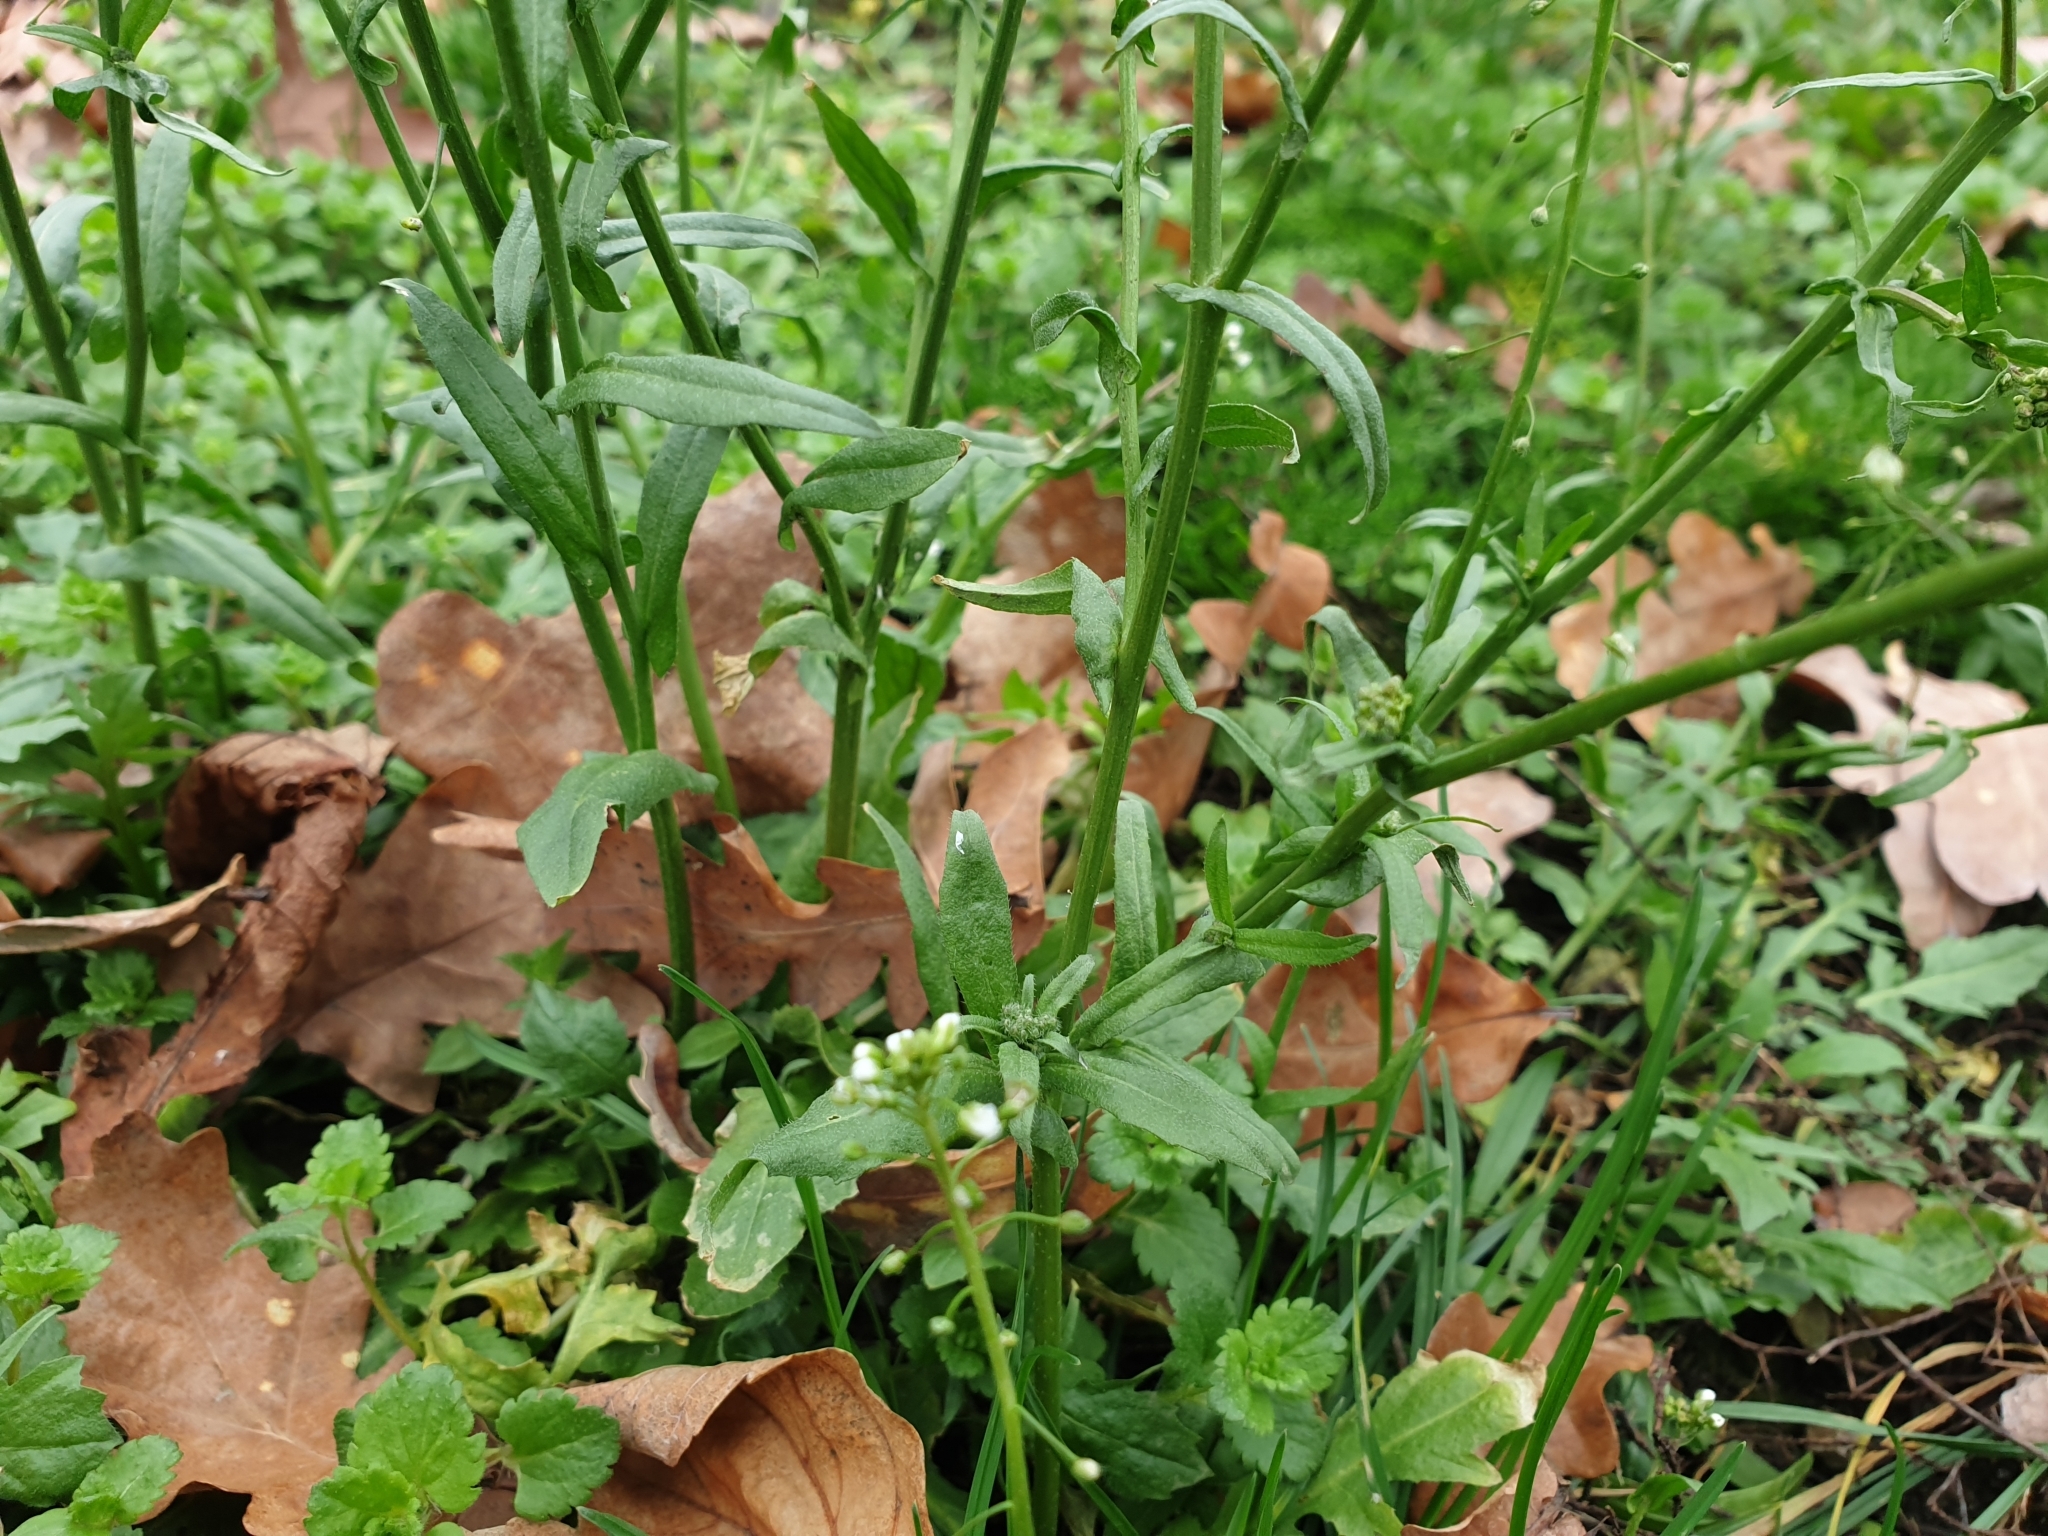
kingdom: Plantae
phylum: Tracheophyta
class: Magnoliopsida
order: Brassicales
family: Brassicaceae
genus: Capsella
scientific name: Capsella bursa-pastoris
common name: Shepherd's purse
